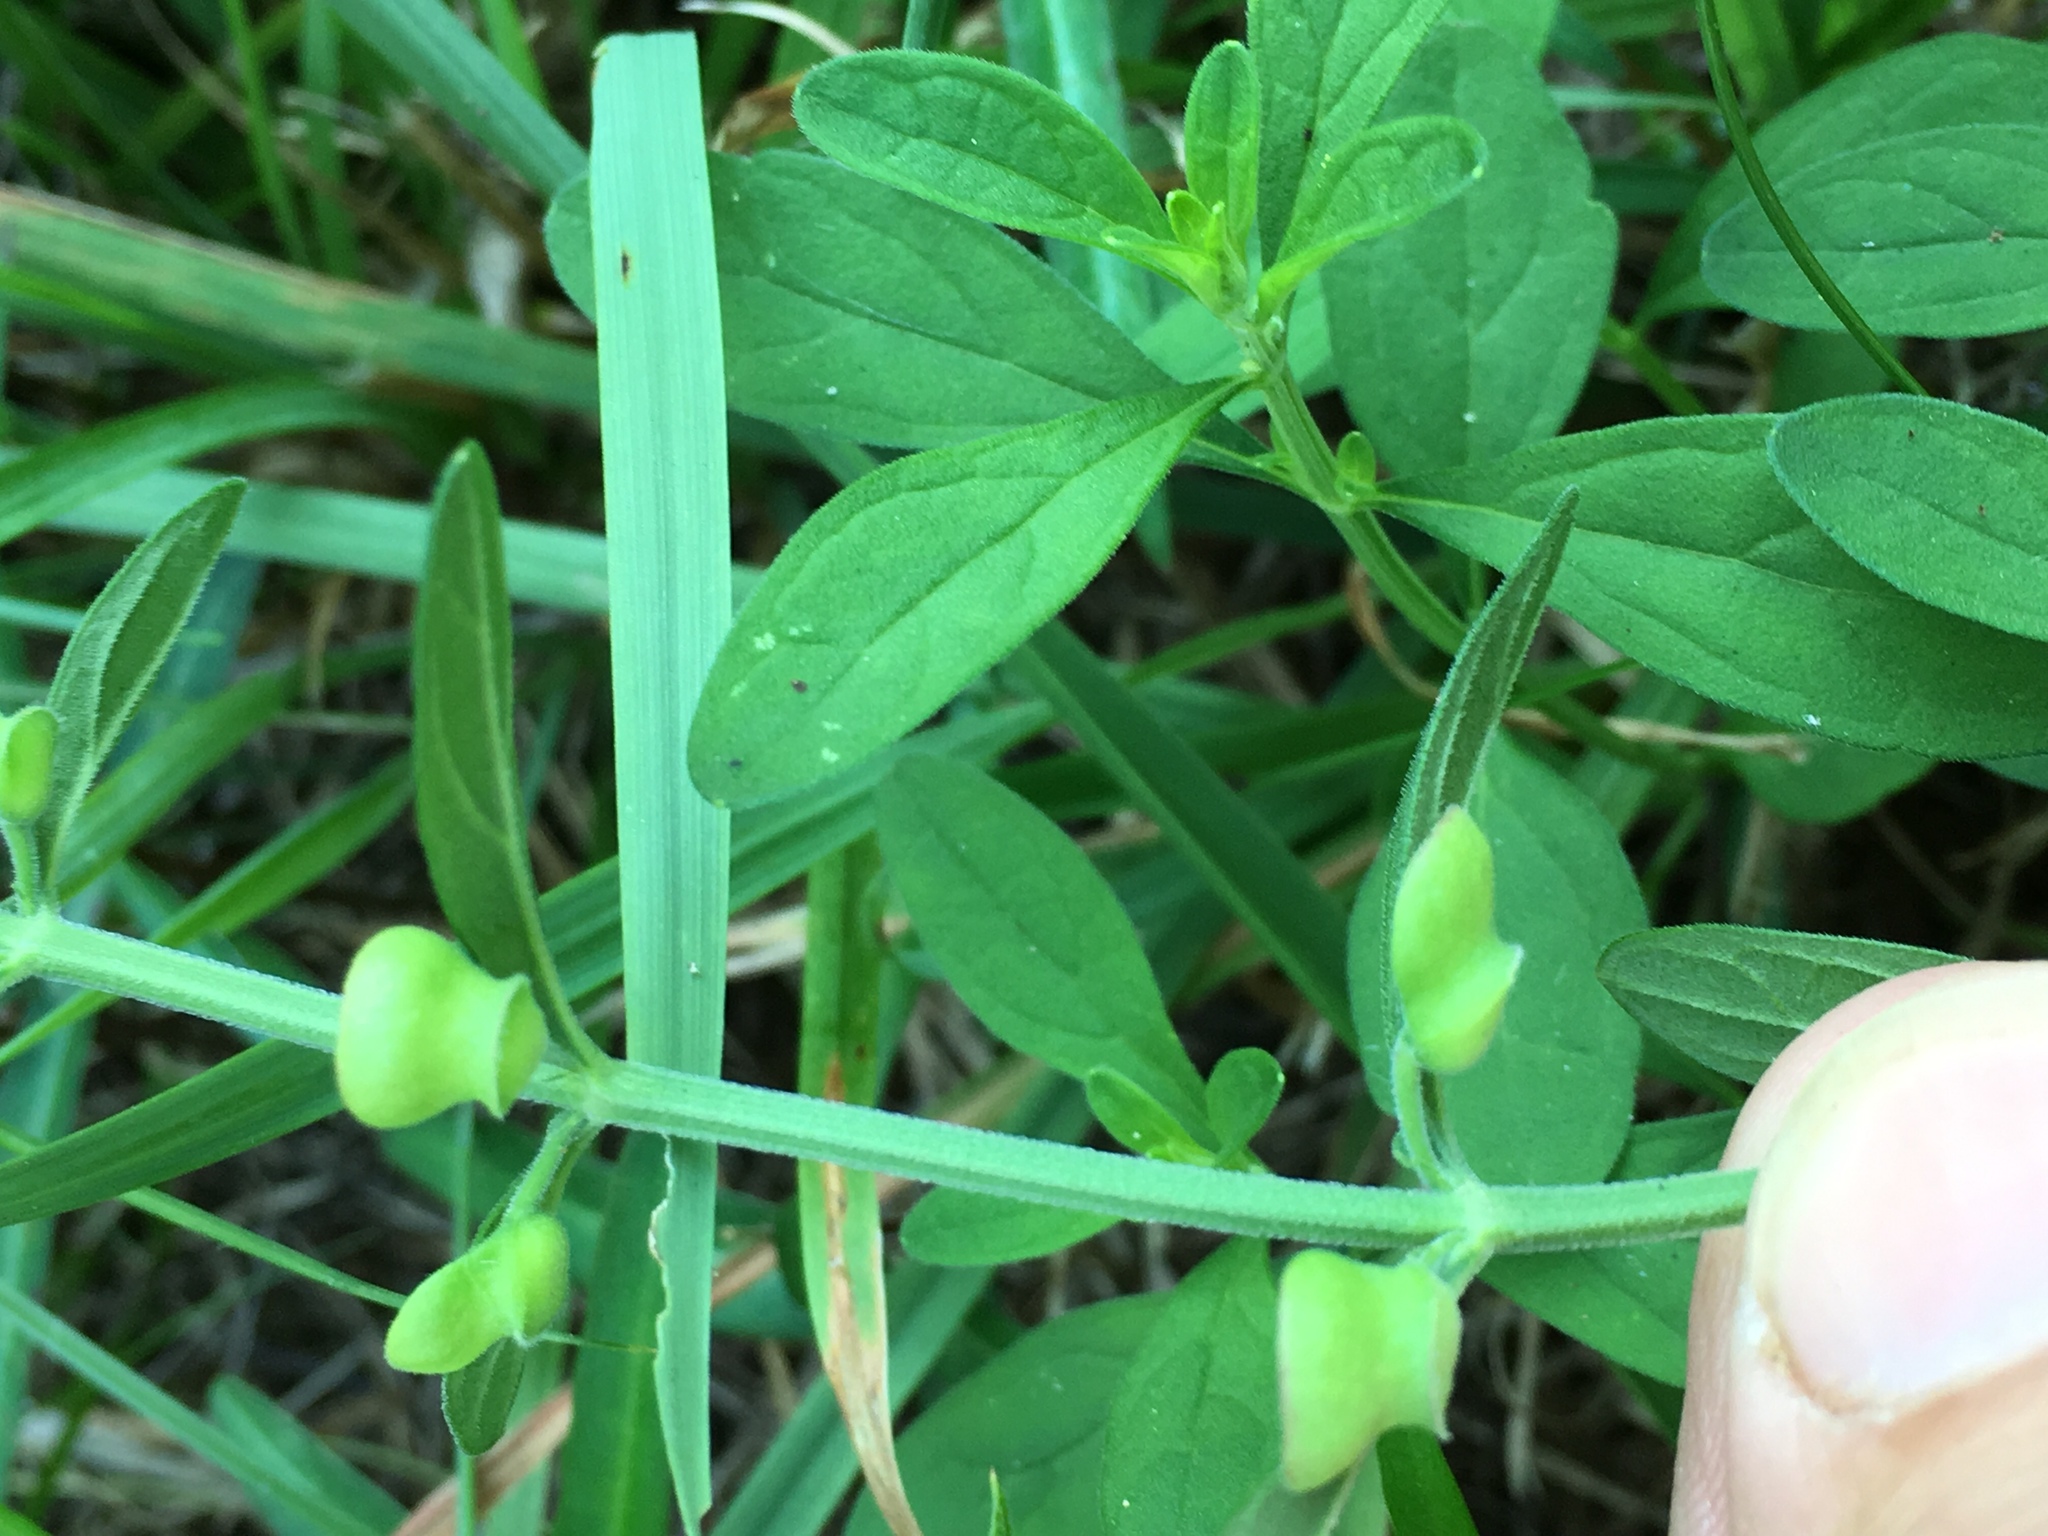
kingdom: Plantae
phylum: Tracheophyta
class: Magnoliopsida
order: Lamiales
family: Lamiaceae
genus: Scutellaria
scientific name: Scutellaria integrifolia
